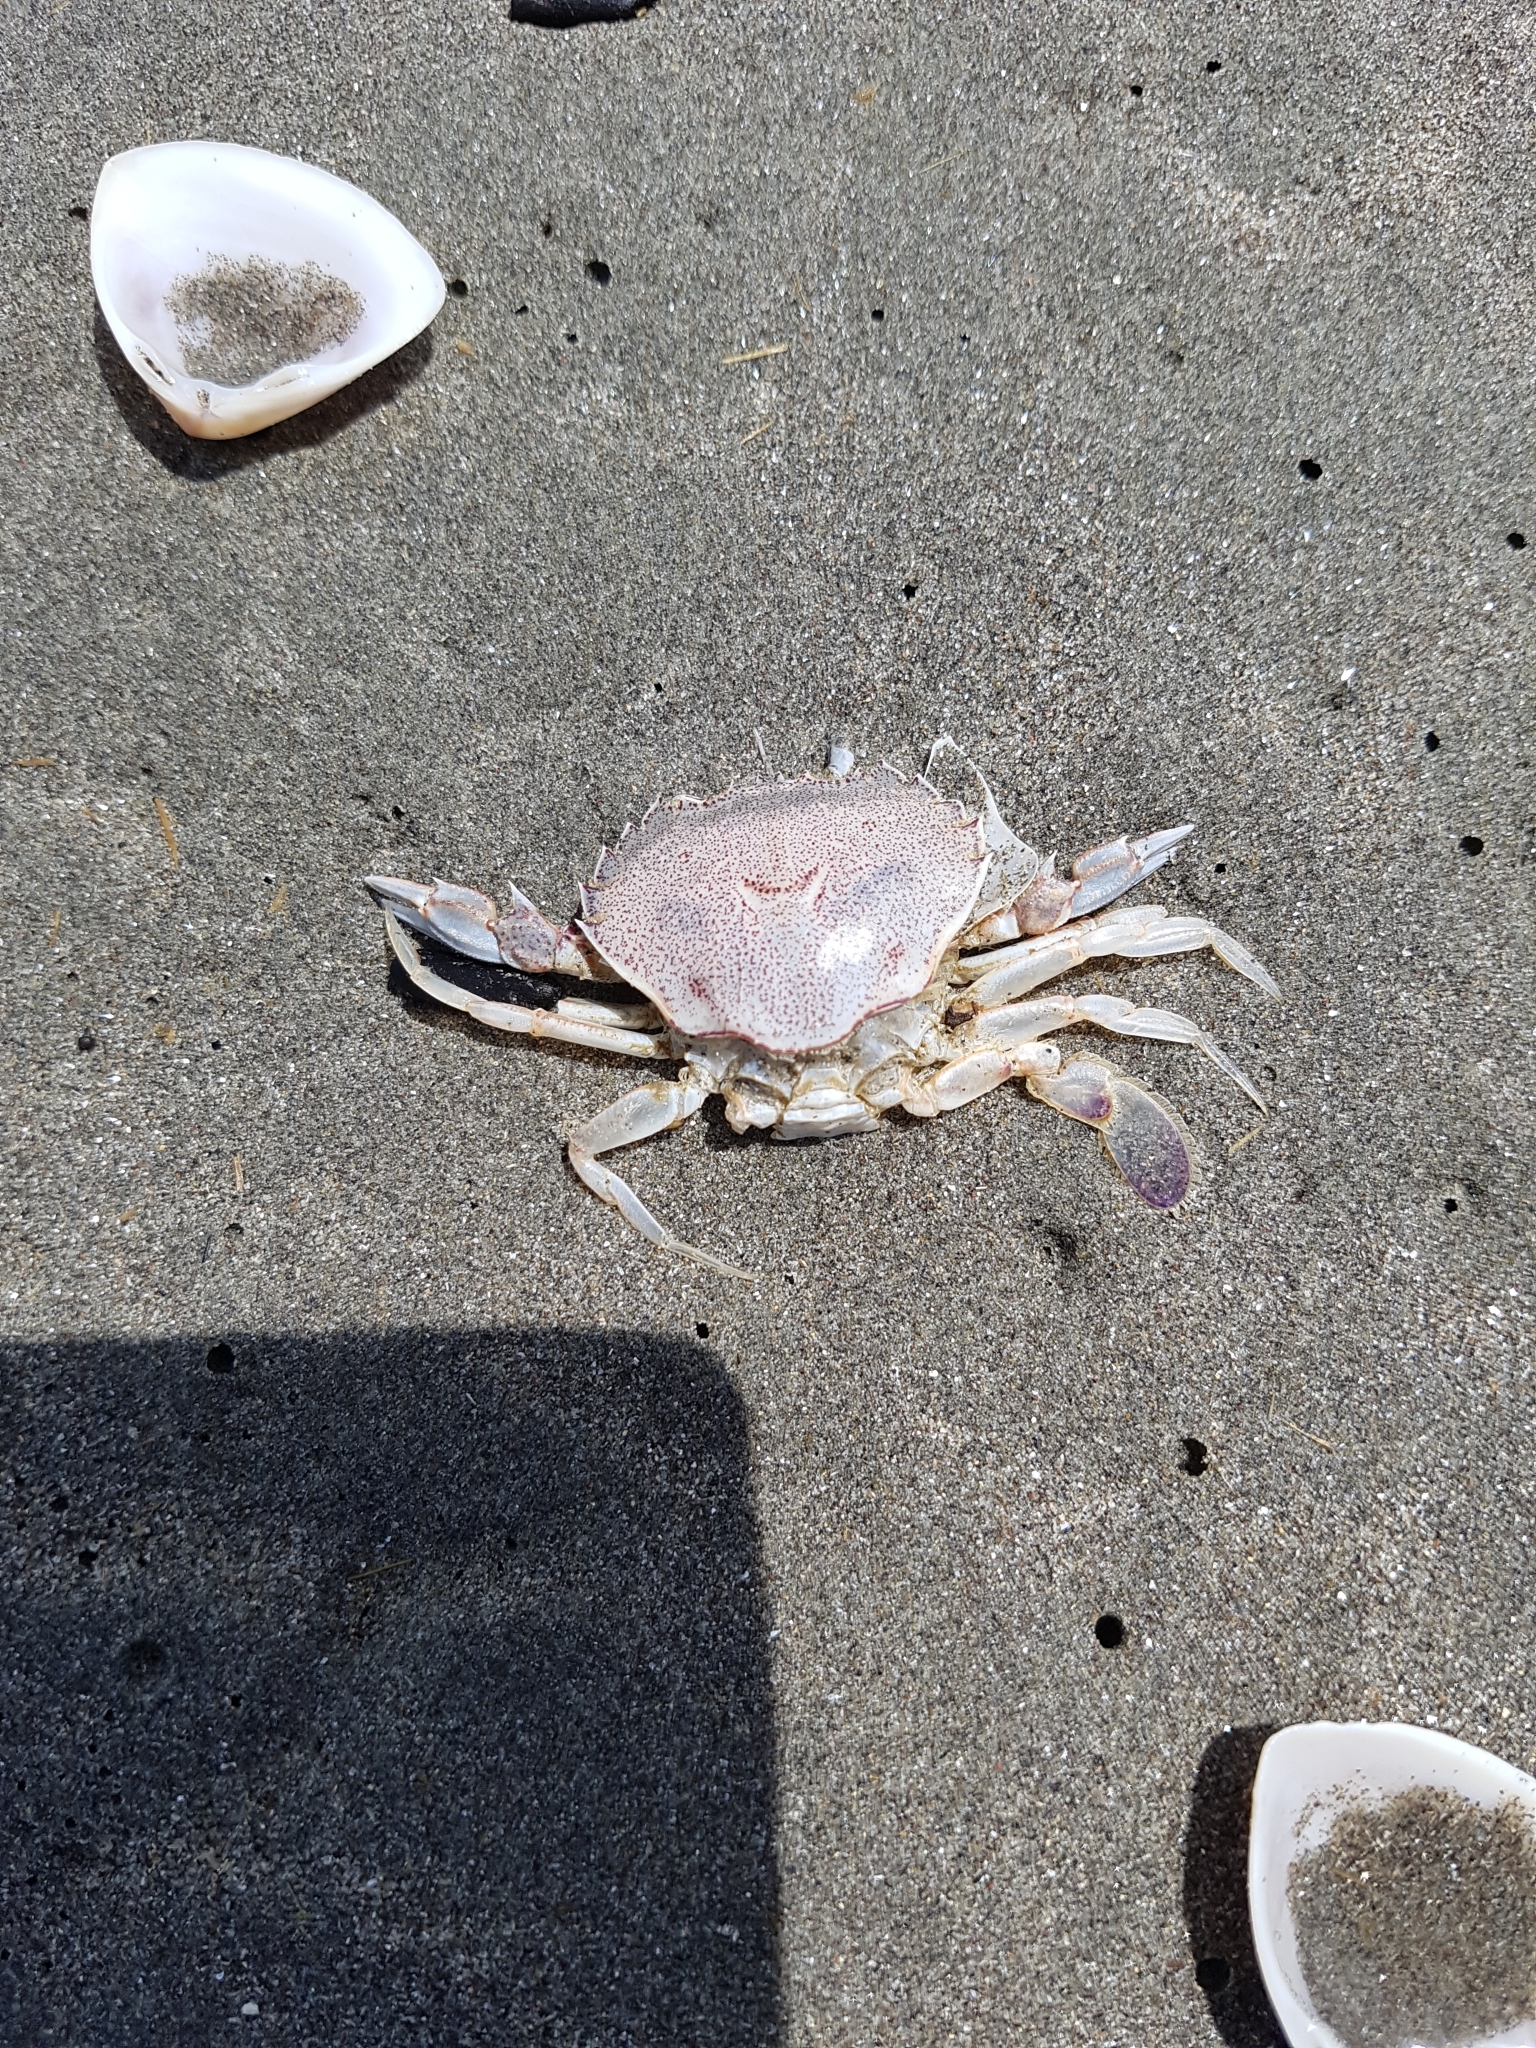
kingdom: Animalia
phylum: Arthropoda
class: Malacostraca
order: Decapoda
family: Ovalipidae
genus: Ovalipes
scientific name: Ovalipes catharus
